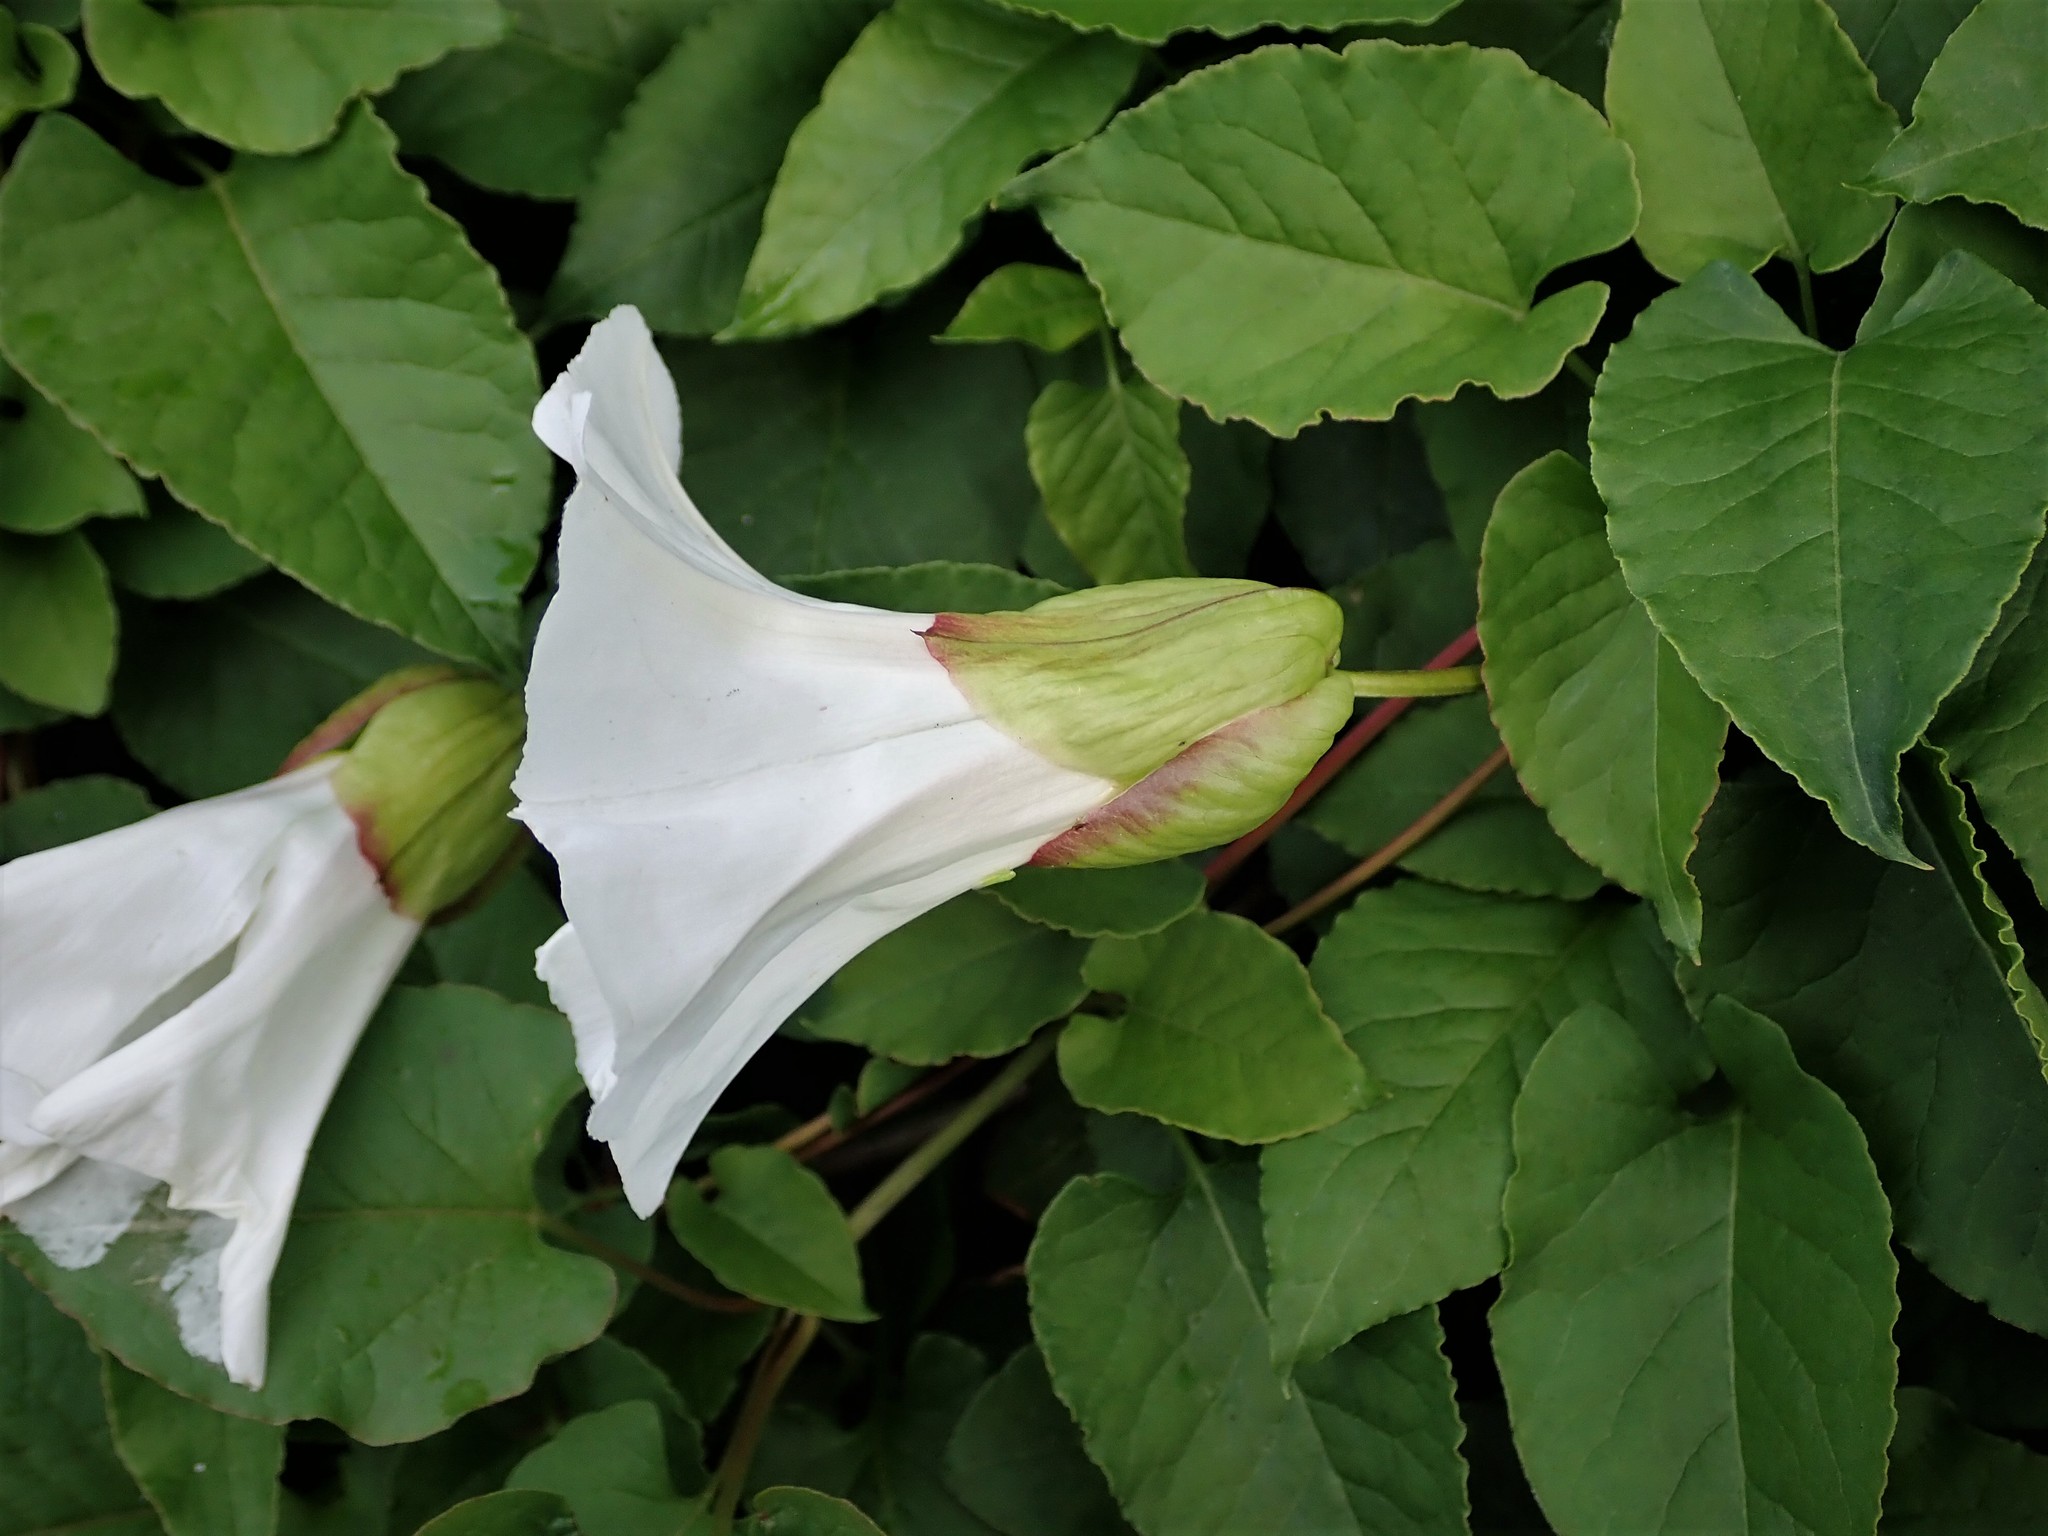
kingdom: Plantae
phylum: Tracheophyta
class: Magnoliopsida
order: Solanales
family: Convolvulaceae
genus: Calystegia
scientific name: Calystegia silvatica
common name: Large bindweed
